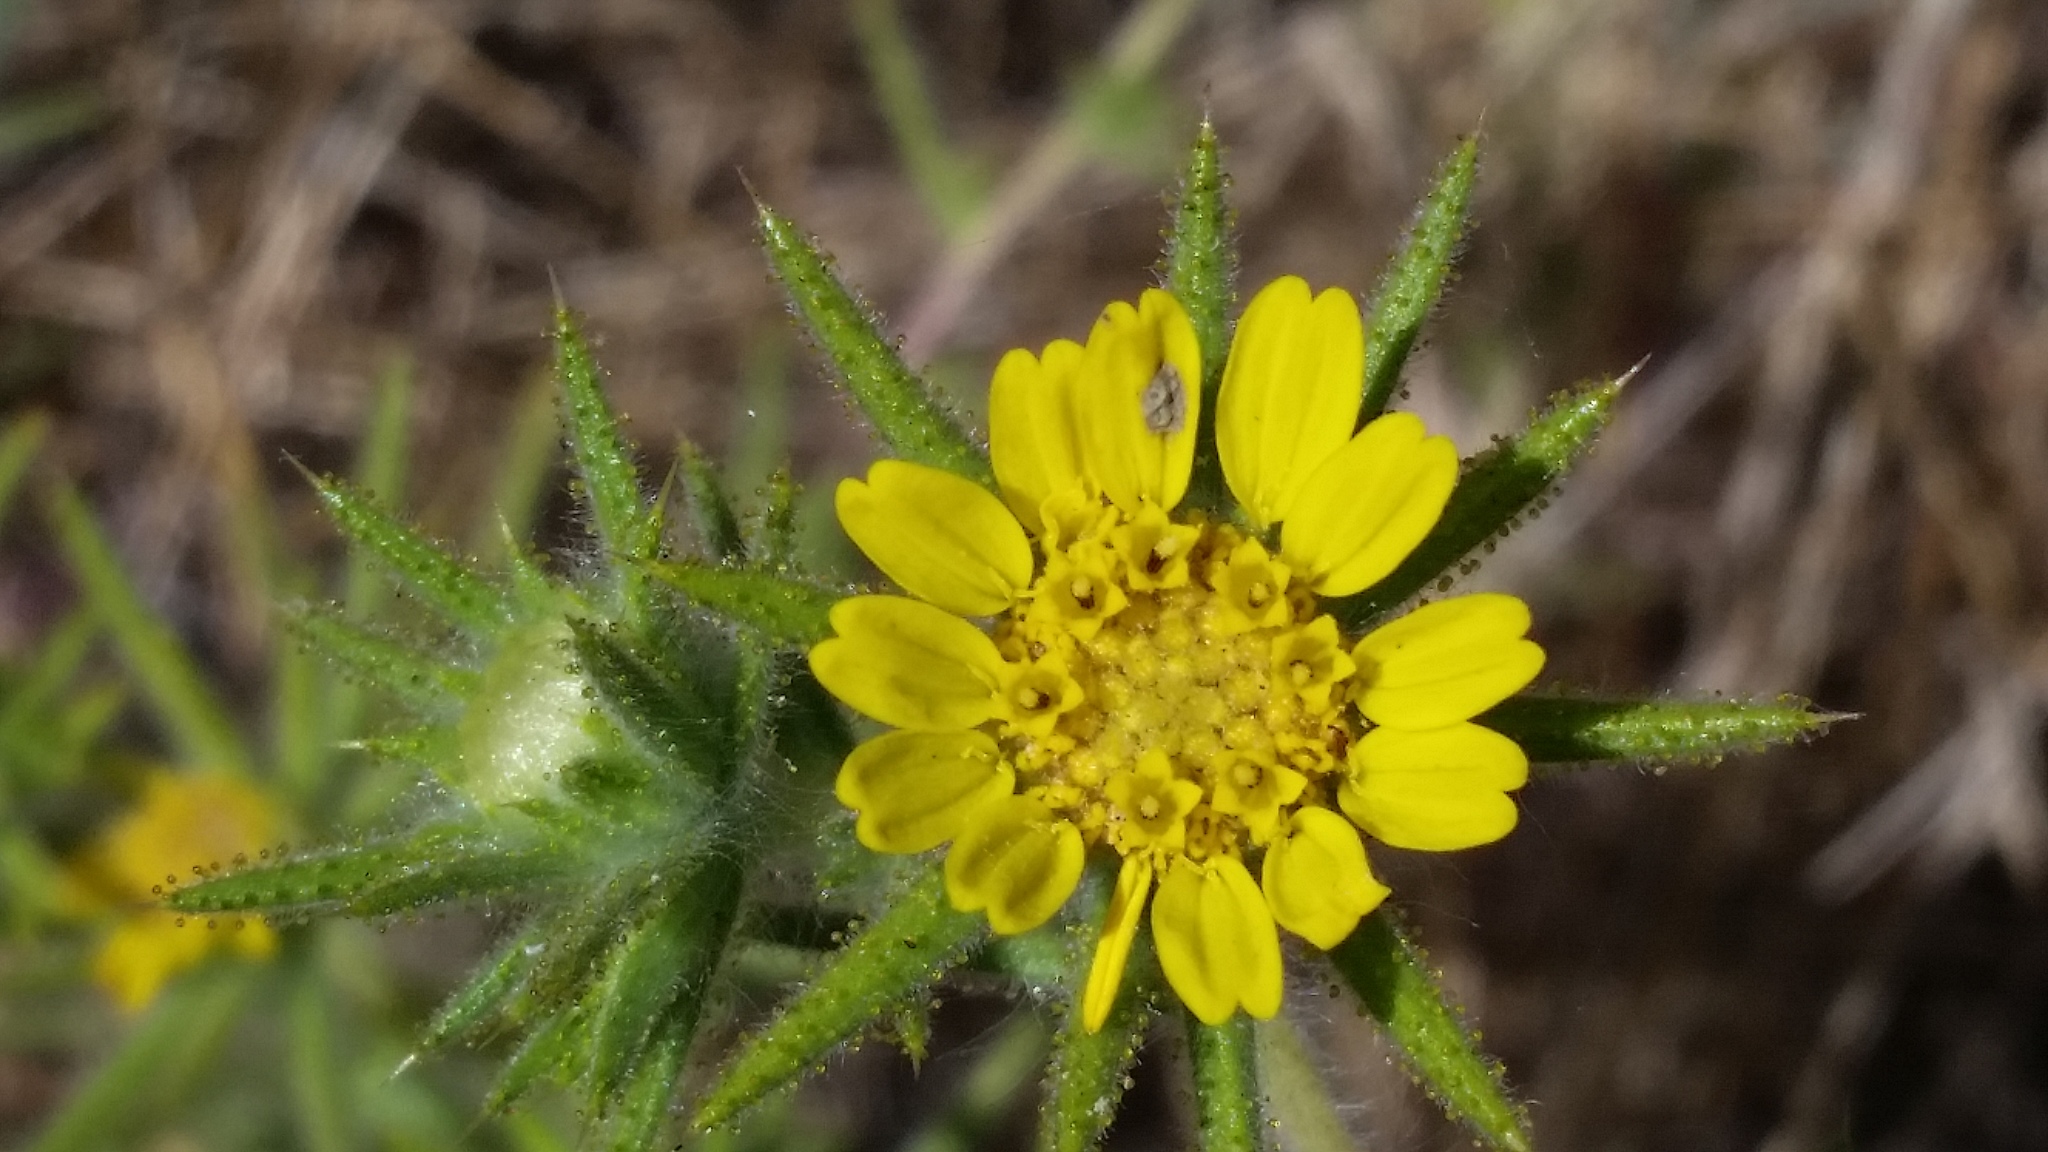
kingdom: Plantae
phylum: Tracheophyta
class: Magnoliopsida
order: Asterales
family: Asteraceae
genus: Centromadia
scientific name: Centromadia fitchii
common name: Fitch's spikeweed
